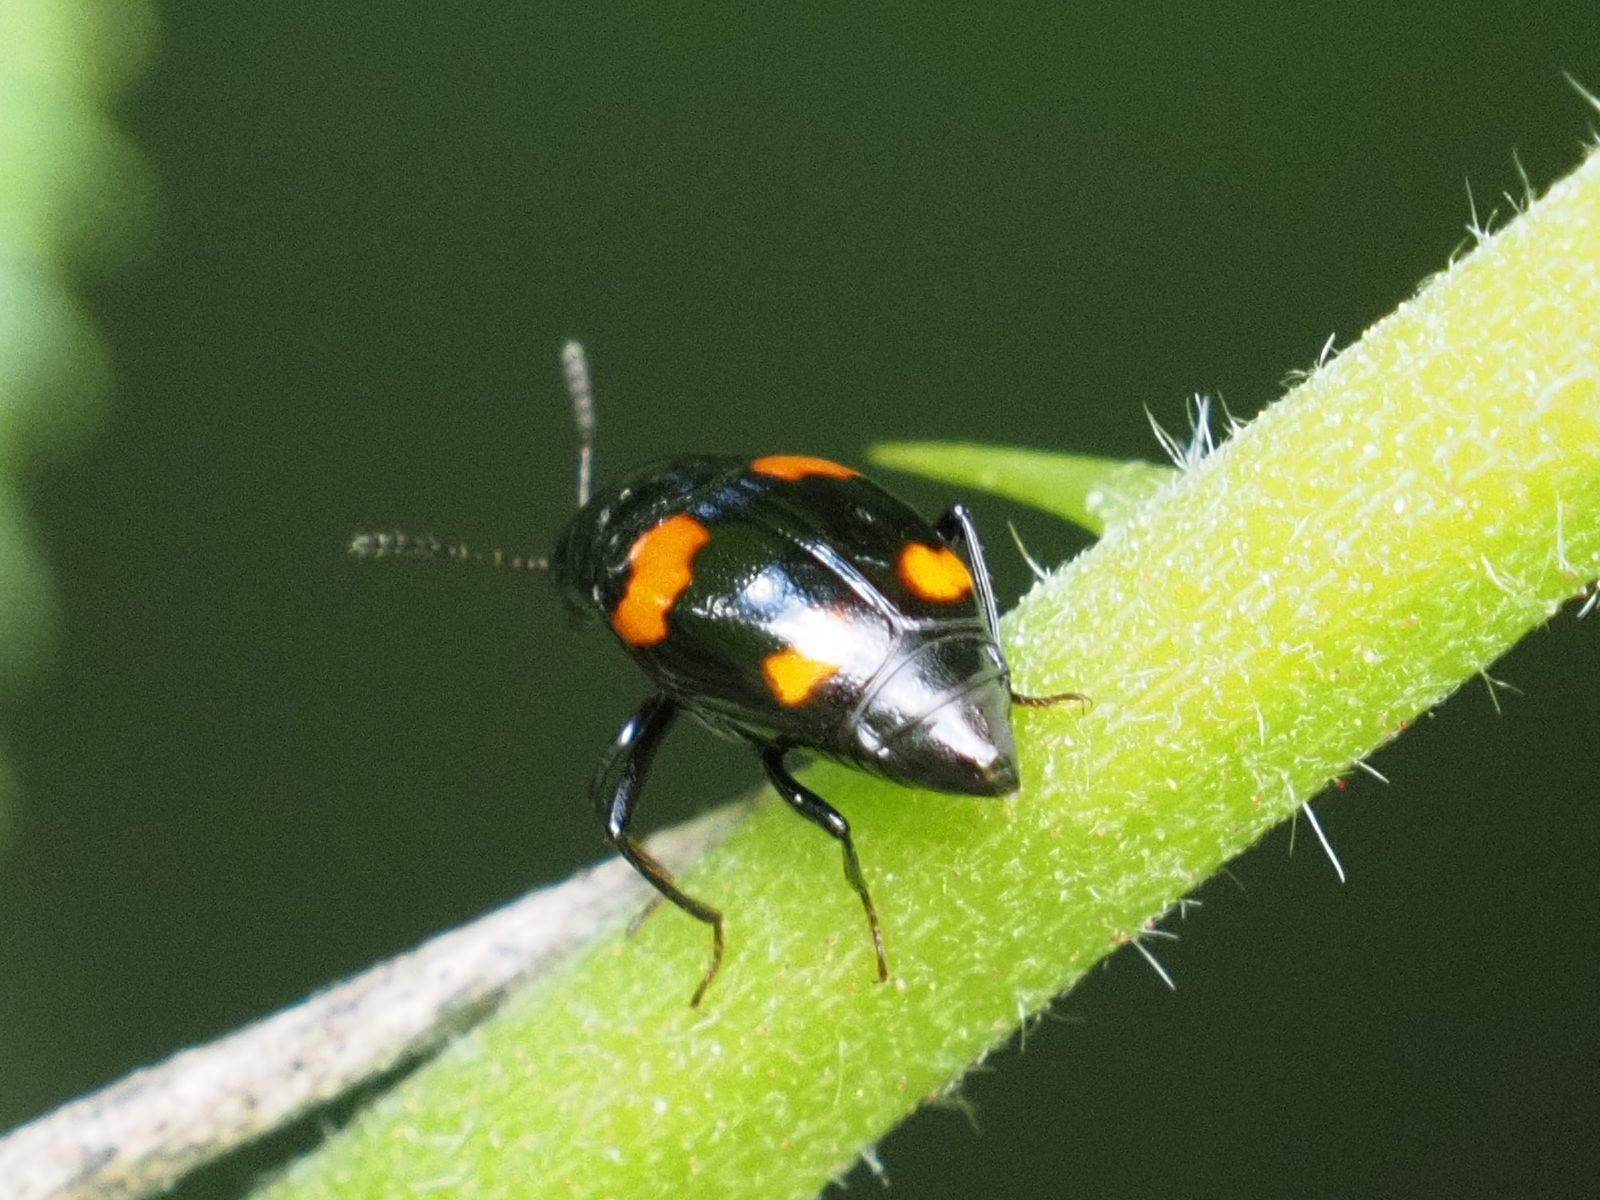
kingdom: Animalia
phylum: Arthropoda
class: Insecta
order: Coleoptera
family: Staphylinidae
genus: Scaphidium
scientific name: Scaphidium quadrimaculatum
